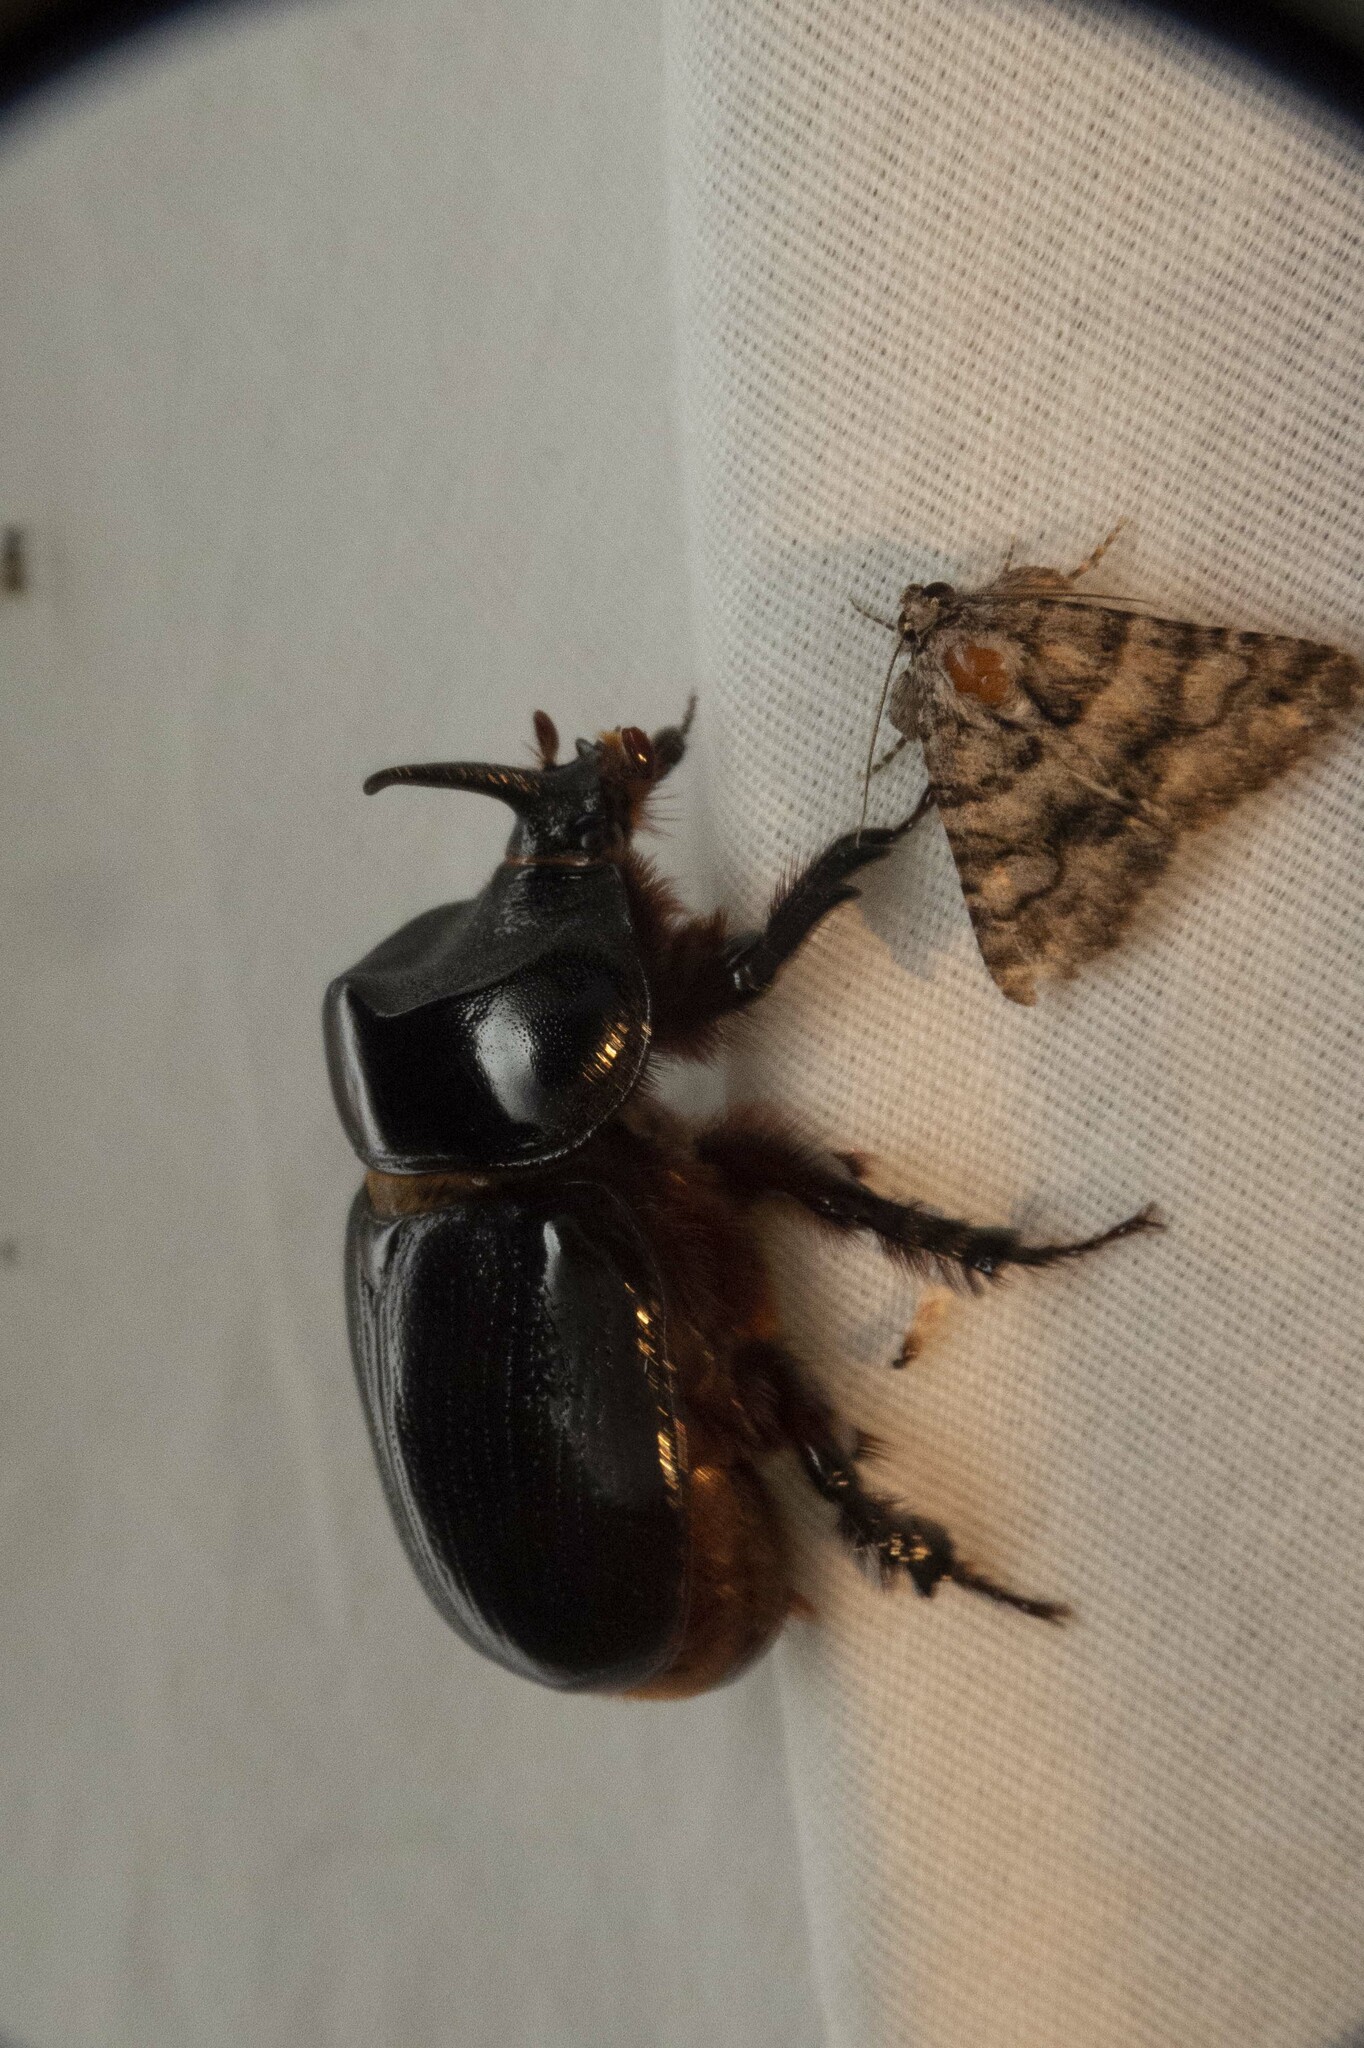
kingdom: Animalia
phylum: Arthropoda
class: Insecta
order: Coleoptera
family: Scarabaeidae
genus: Xyloryctes
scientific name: Xyloryctes thestalus
